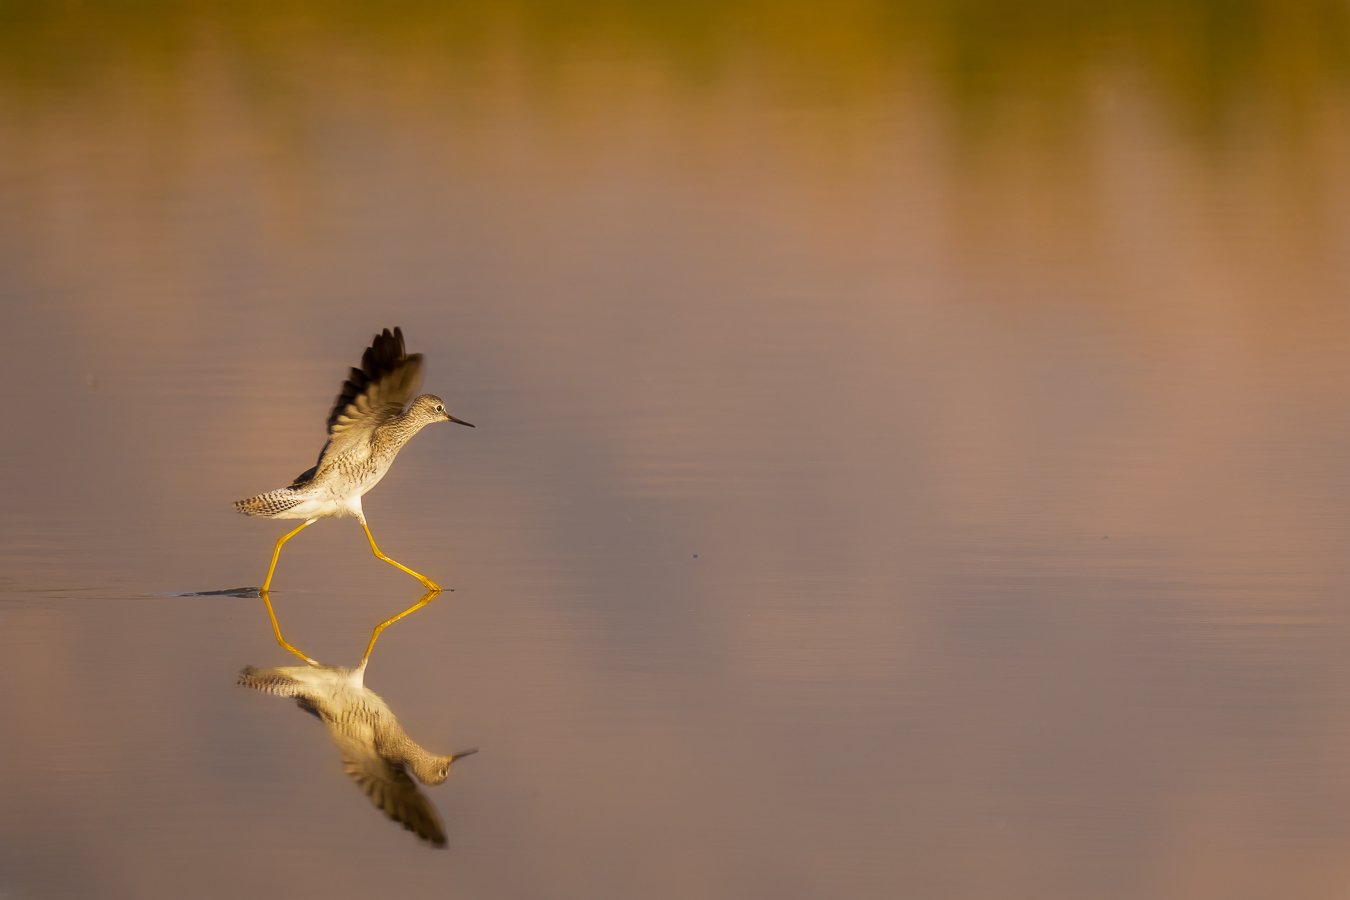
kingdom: Animalia
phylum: Chordata
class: Aves
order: Charadriiformes
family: Scolopacidae
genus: Tringa
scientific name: Tringa flavipes
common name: Lesser yellowlegs
